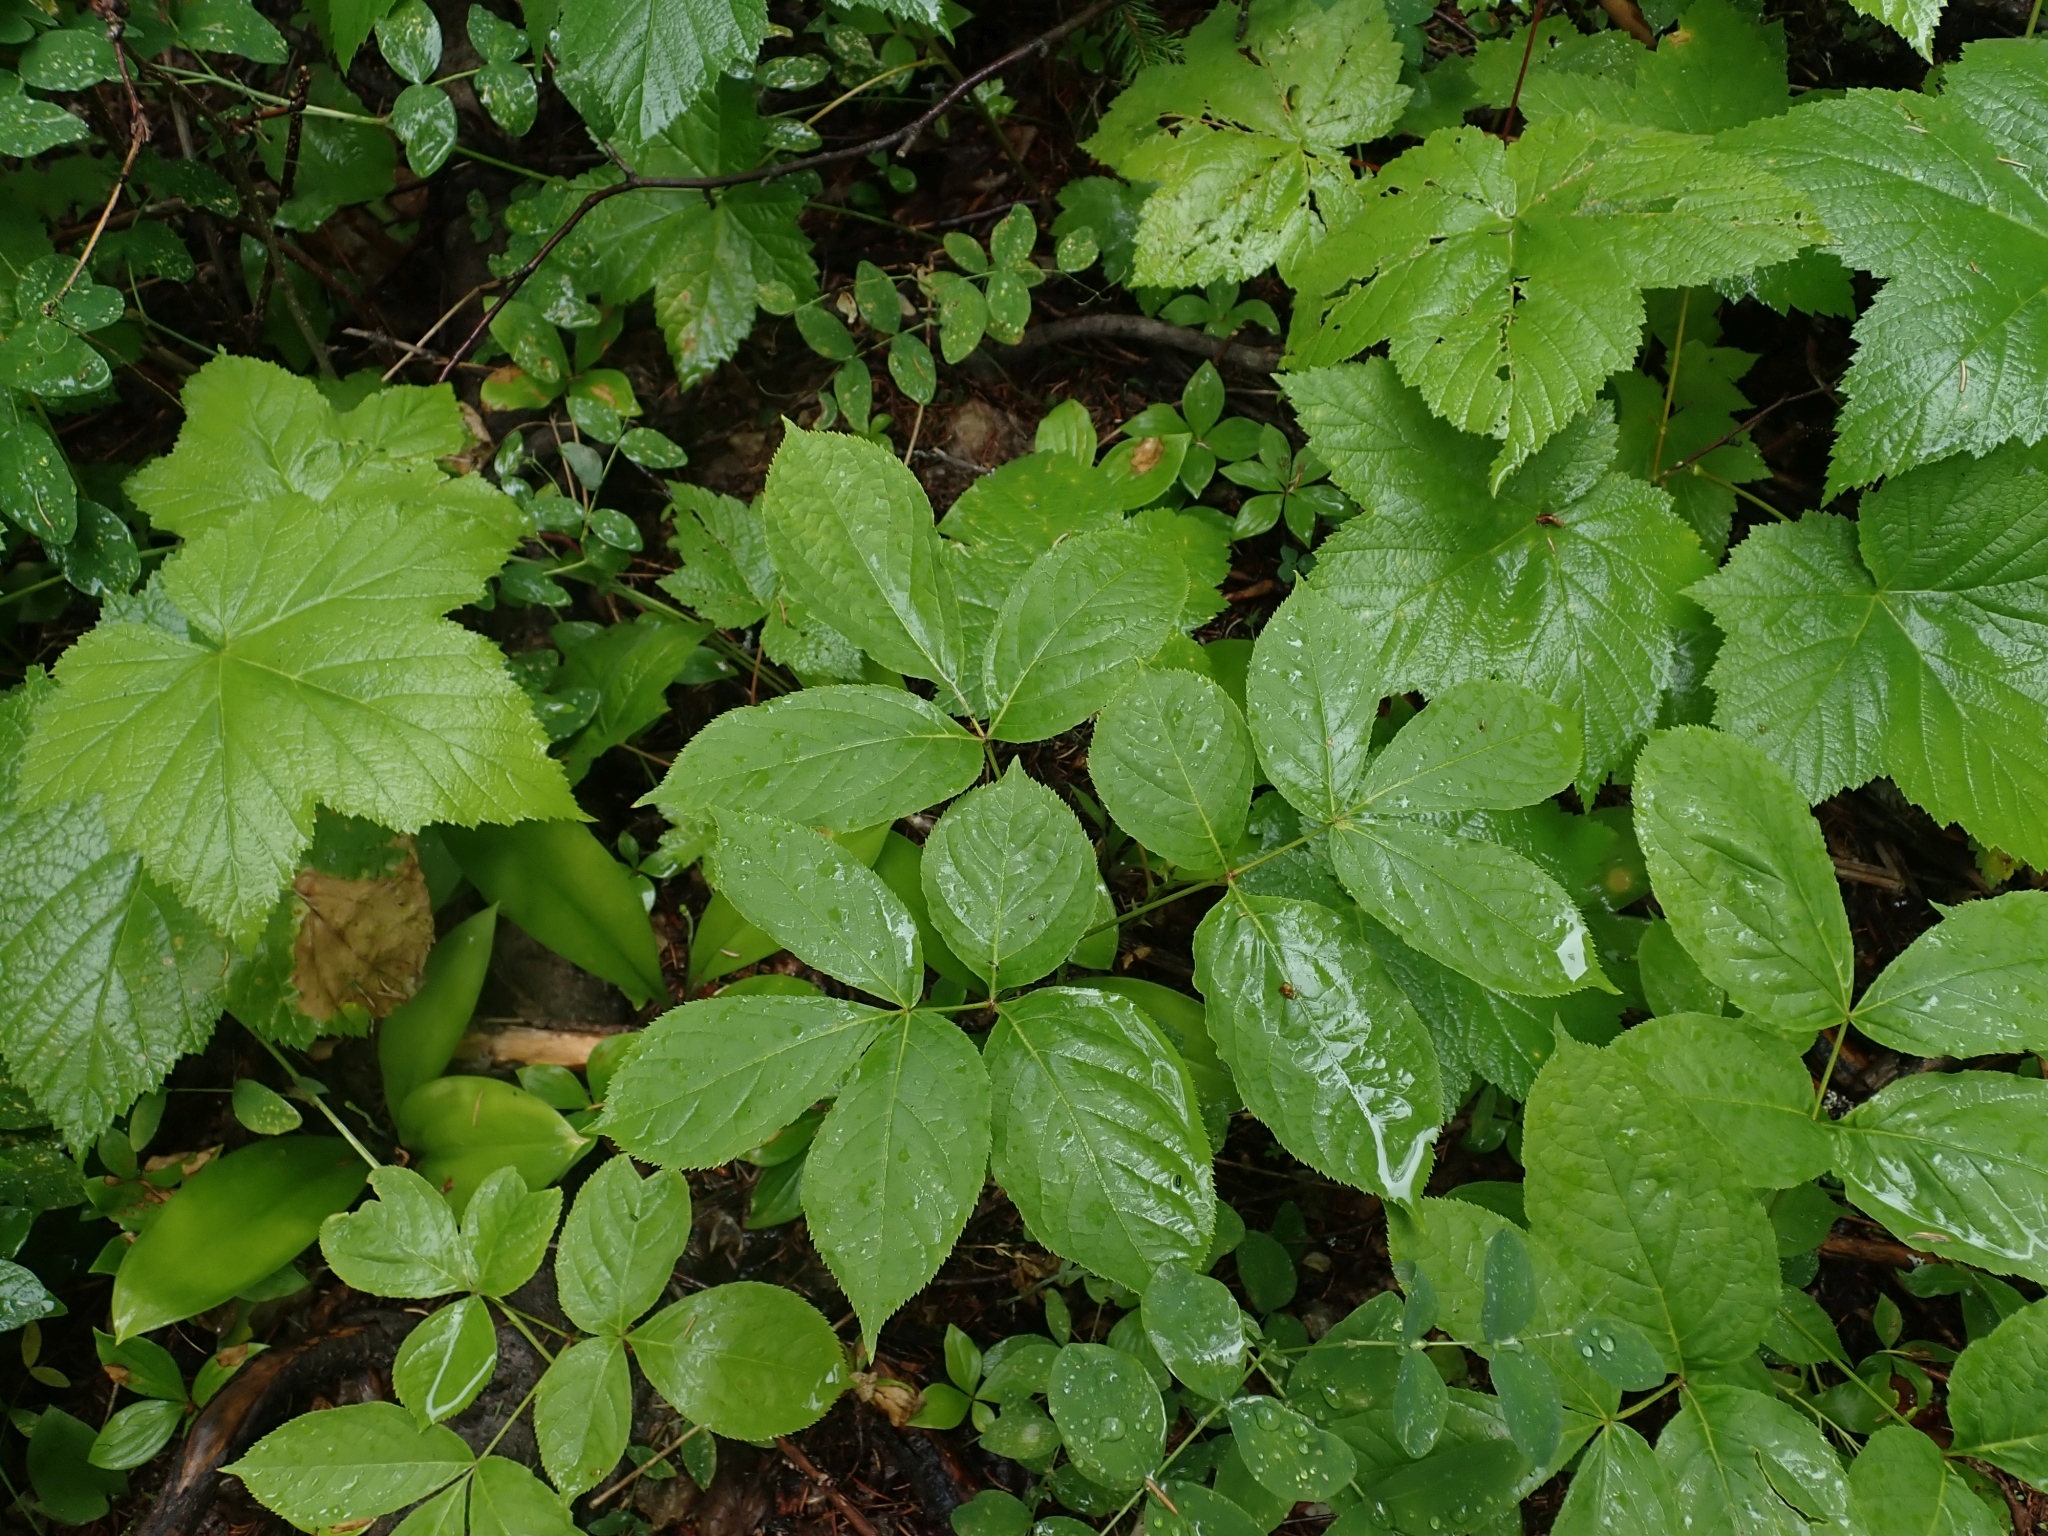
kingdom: Plantae
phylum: Tracheophyta
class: Magnoliopsida
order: Apiales
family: Araliaceae
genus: Aralia
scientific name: Aralia nudicaulis
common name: Wild sarsaparilla
